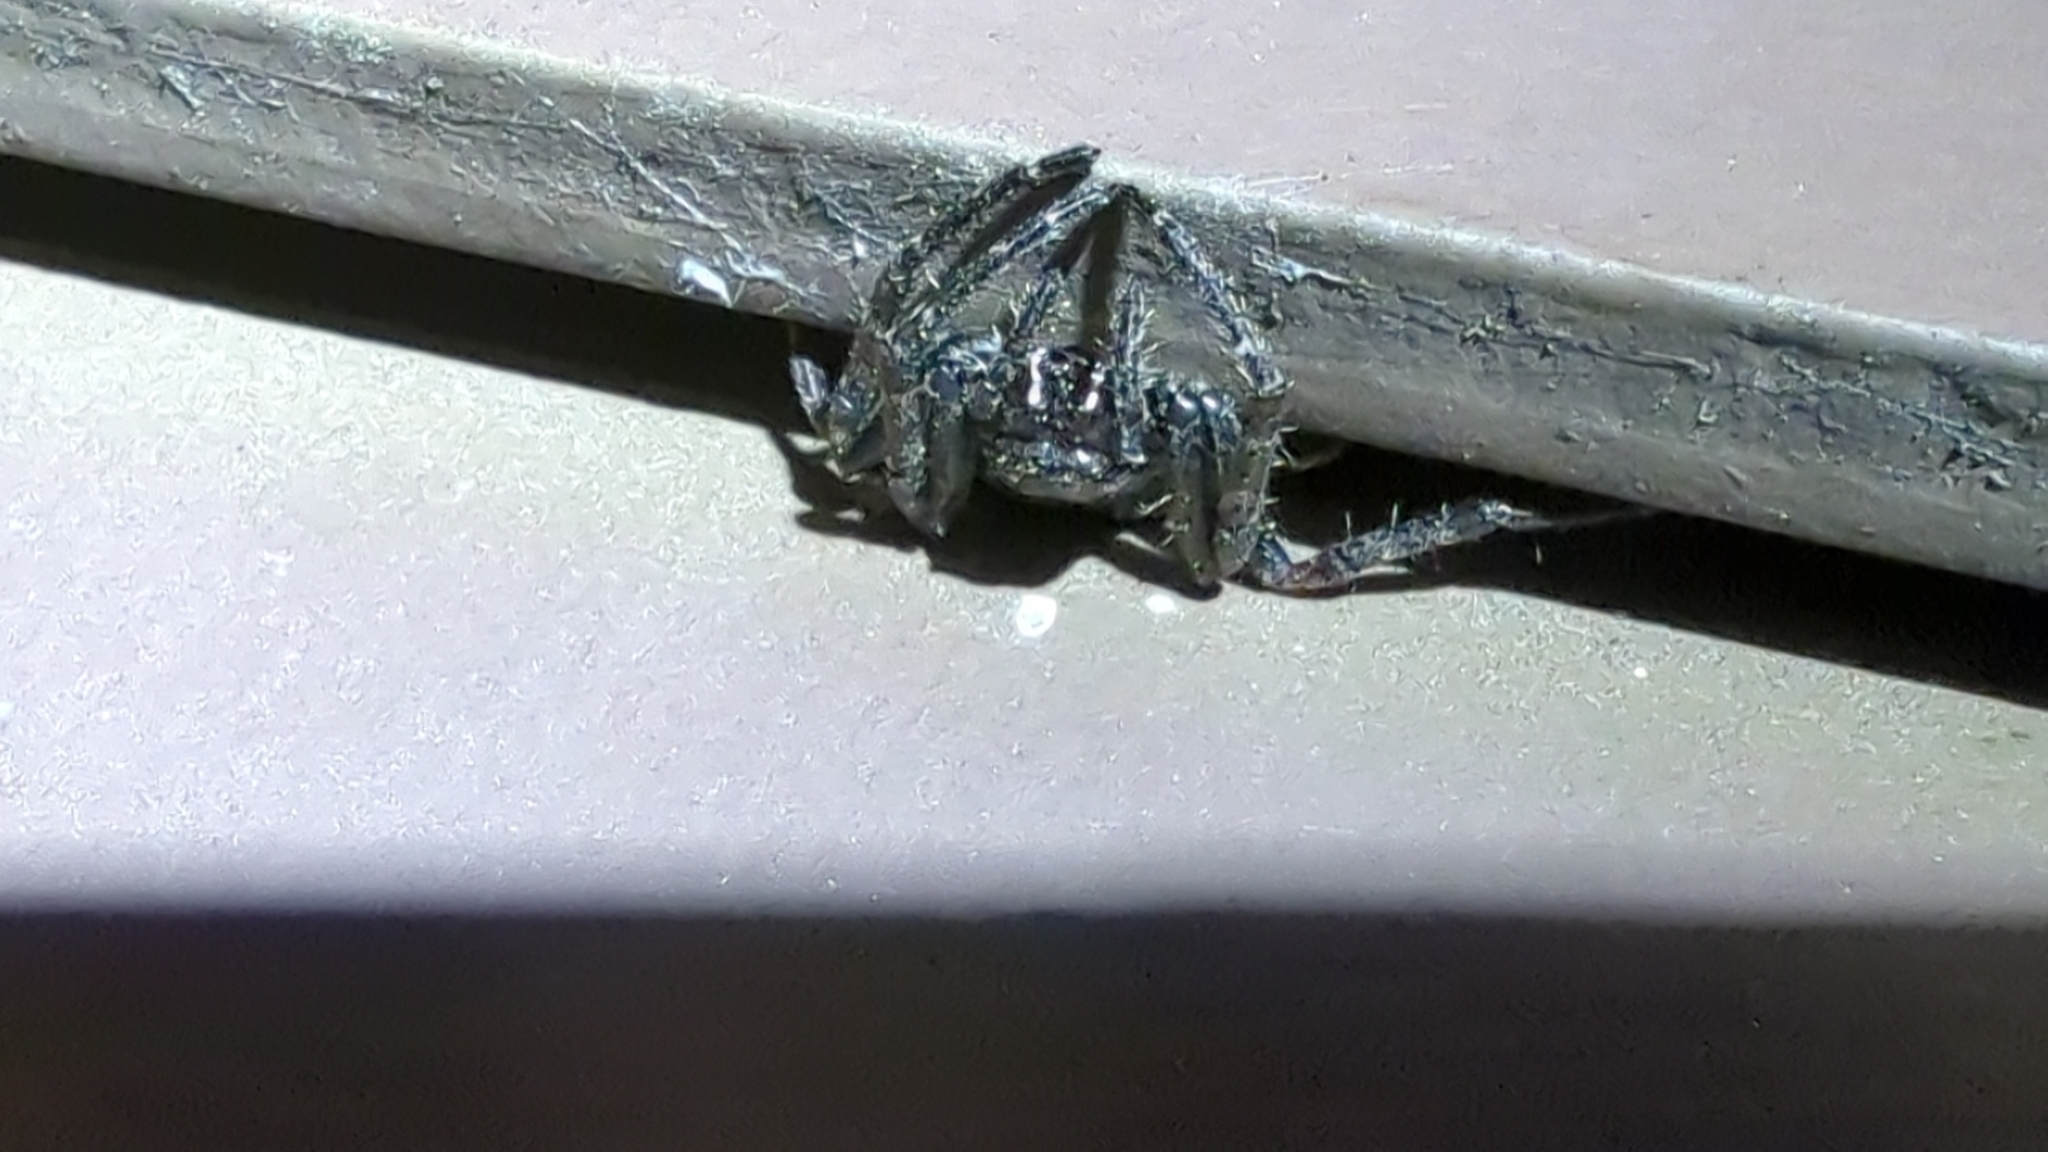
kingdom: Animalia
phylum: Arthropoda
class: Arachnida
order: Araneae
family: Araneidae
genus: Nuctenea
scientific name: Nuctenea umbratica
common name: Toad spider
